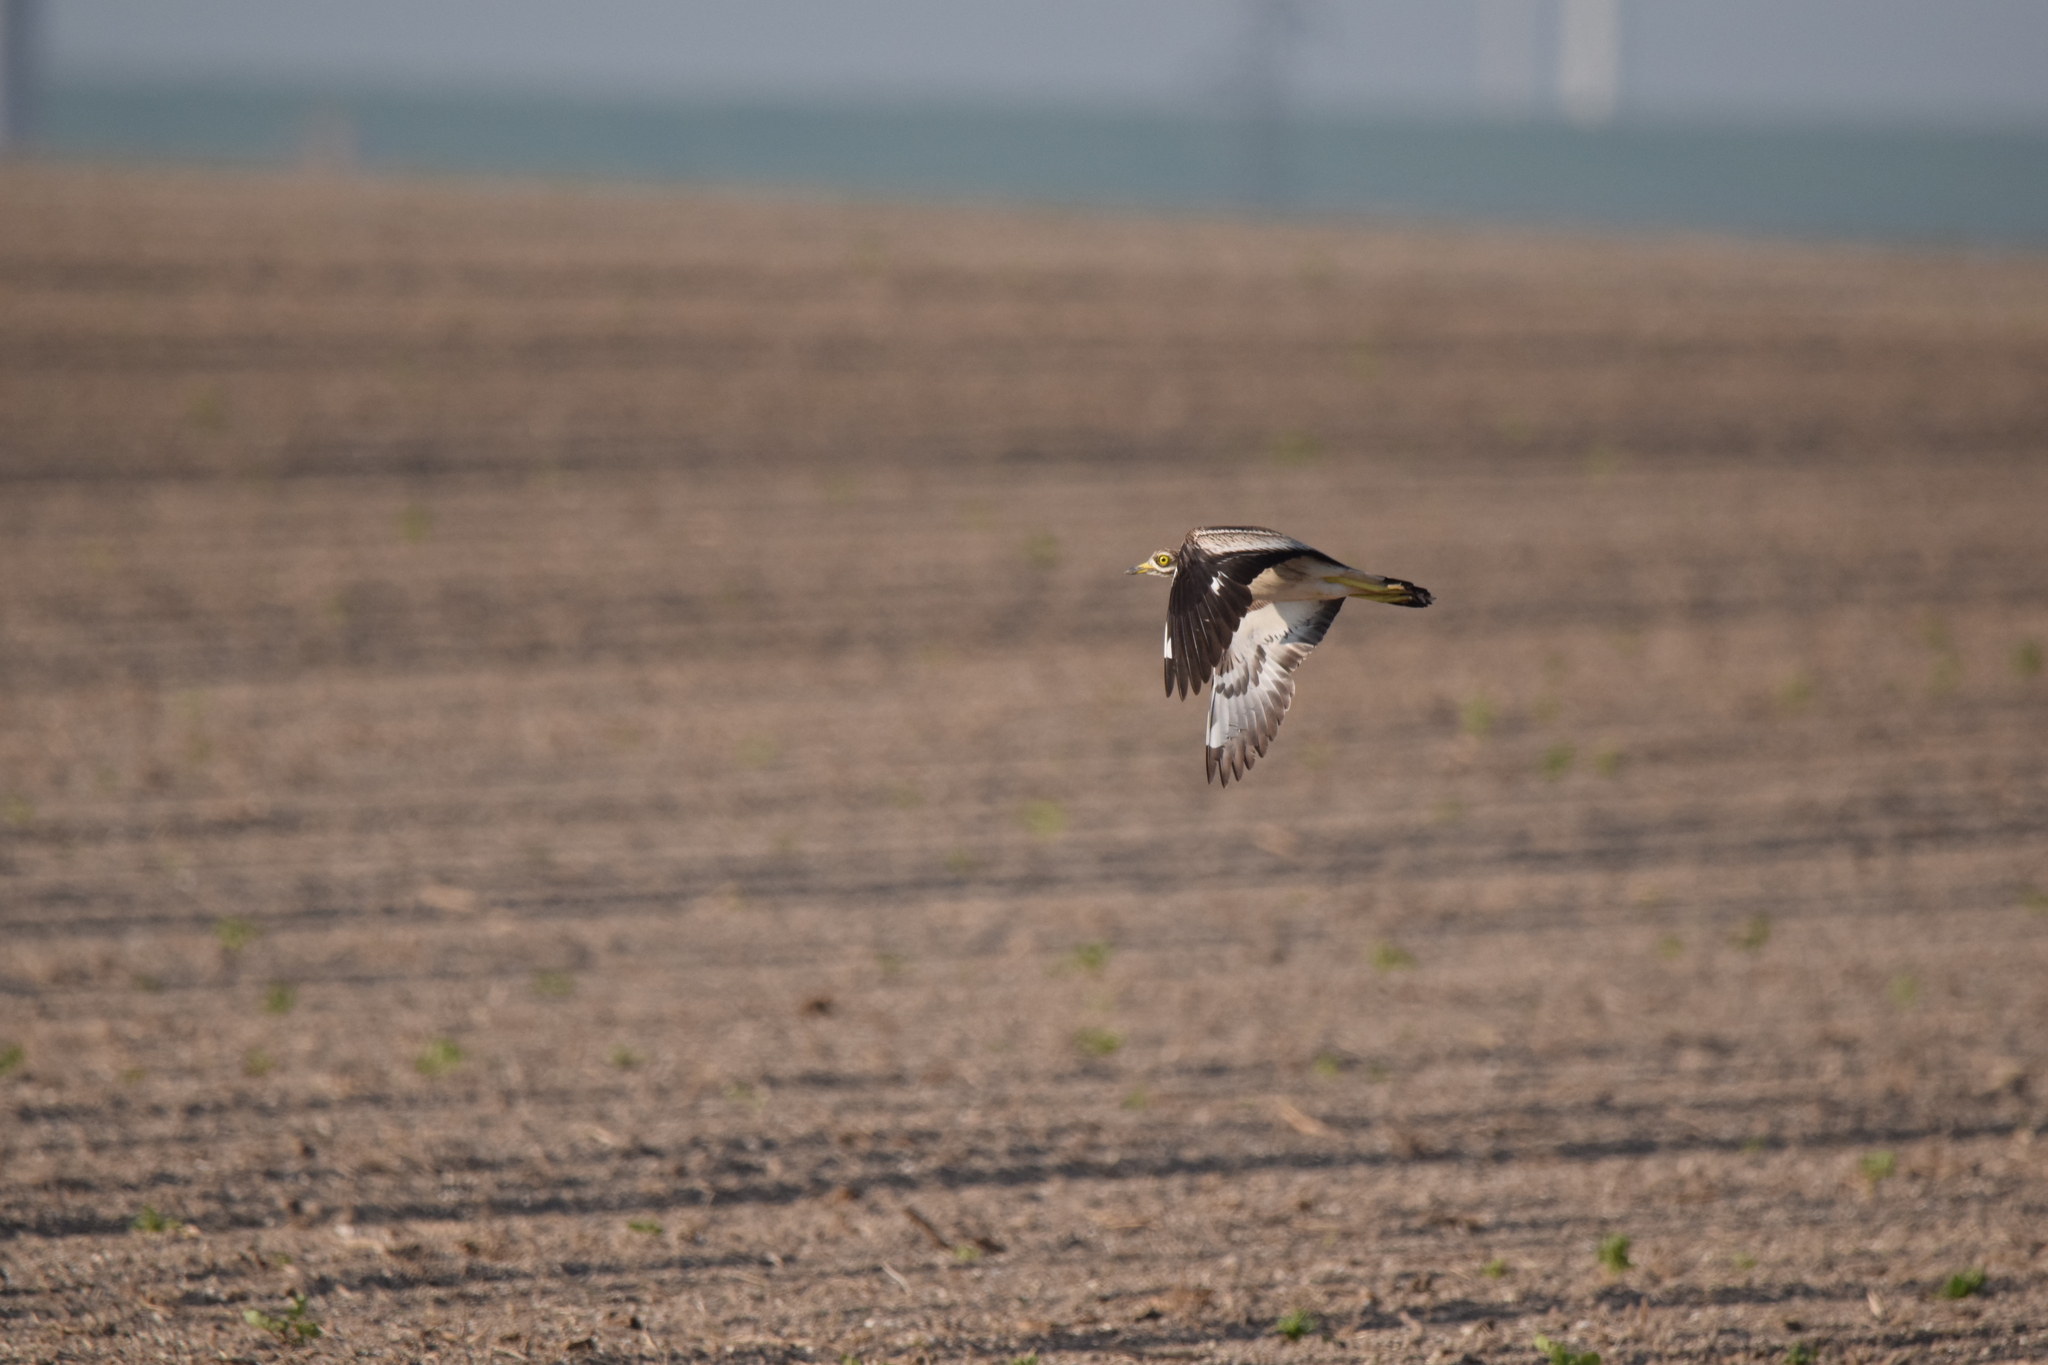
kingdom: Animalia
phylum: Chordata
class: Aves
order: Charadriiformes
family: Burhinidae
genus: Burhinus
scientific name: Burhinus oedicnemus
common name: Eurasian stone-curlew
